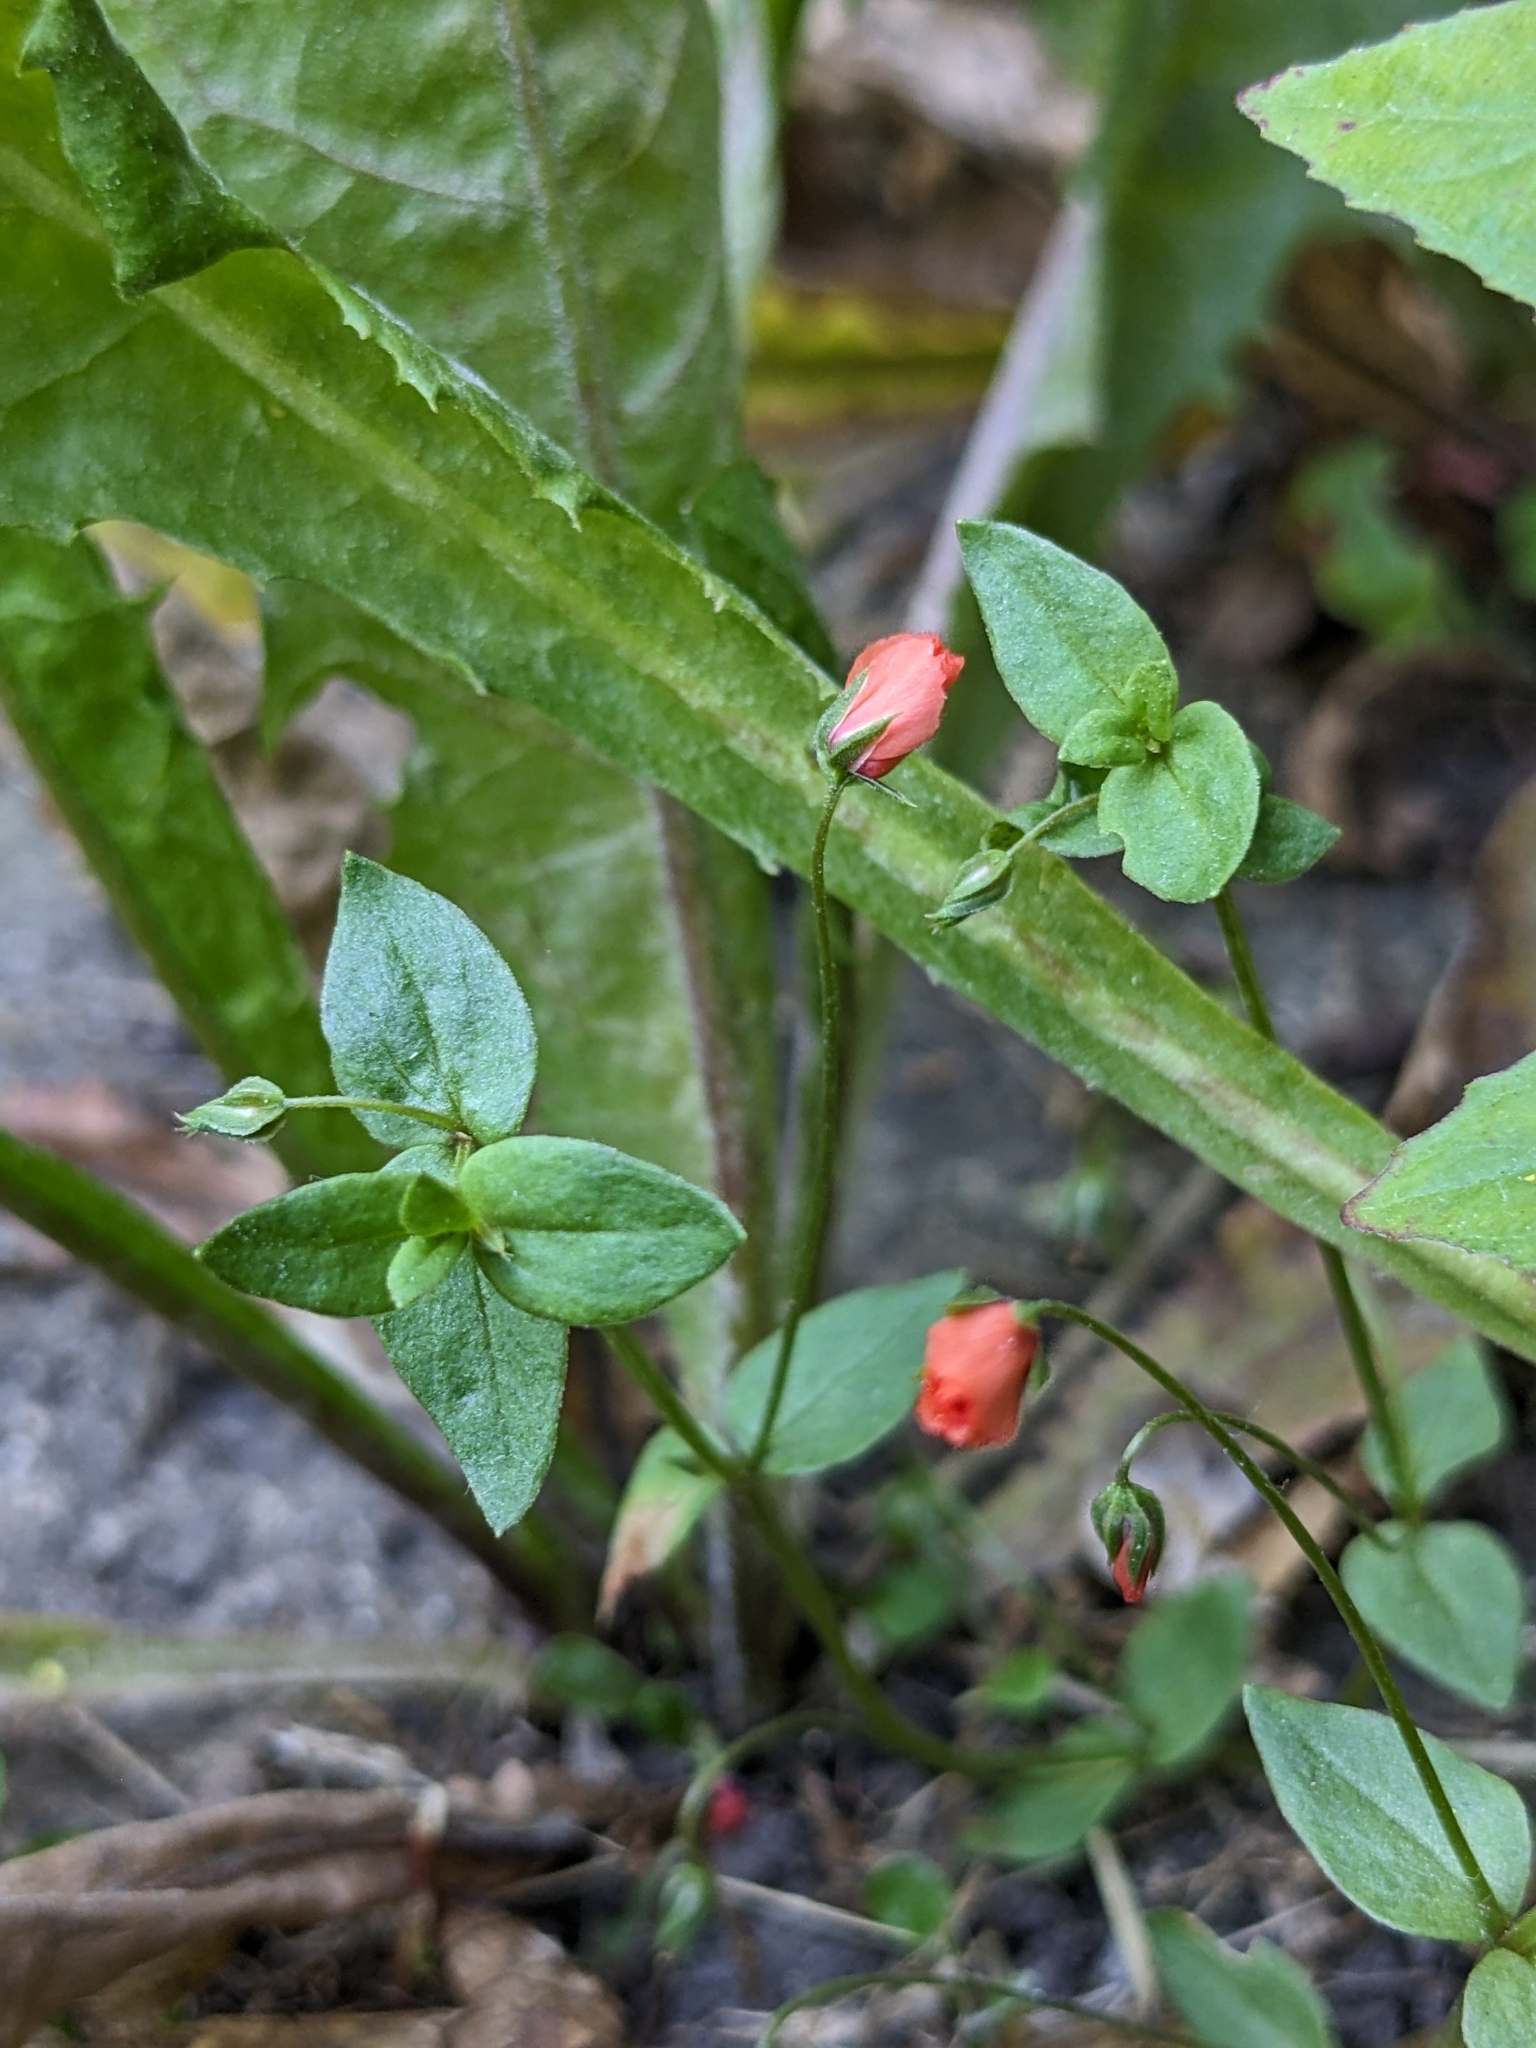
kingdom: Plantae
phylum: Tracheophyta
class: Magnoliopsida
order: Ericales
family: Primulaceae
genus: Lysimachia
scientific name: Lysimachia arvensis
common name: Scarlet pimpernel
